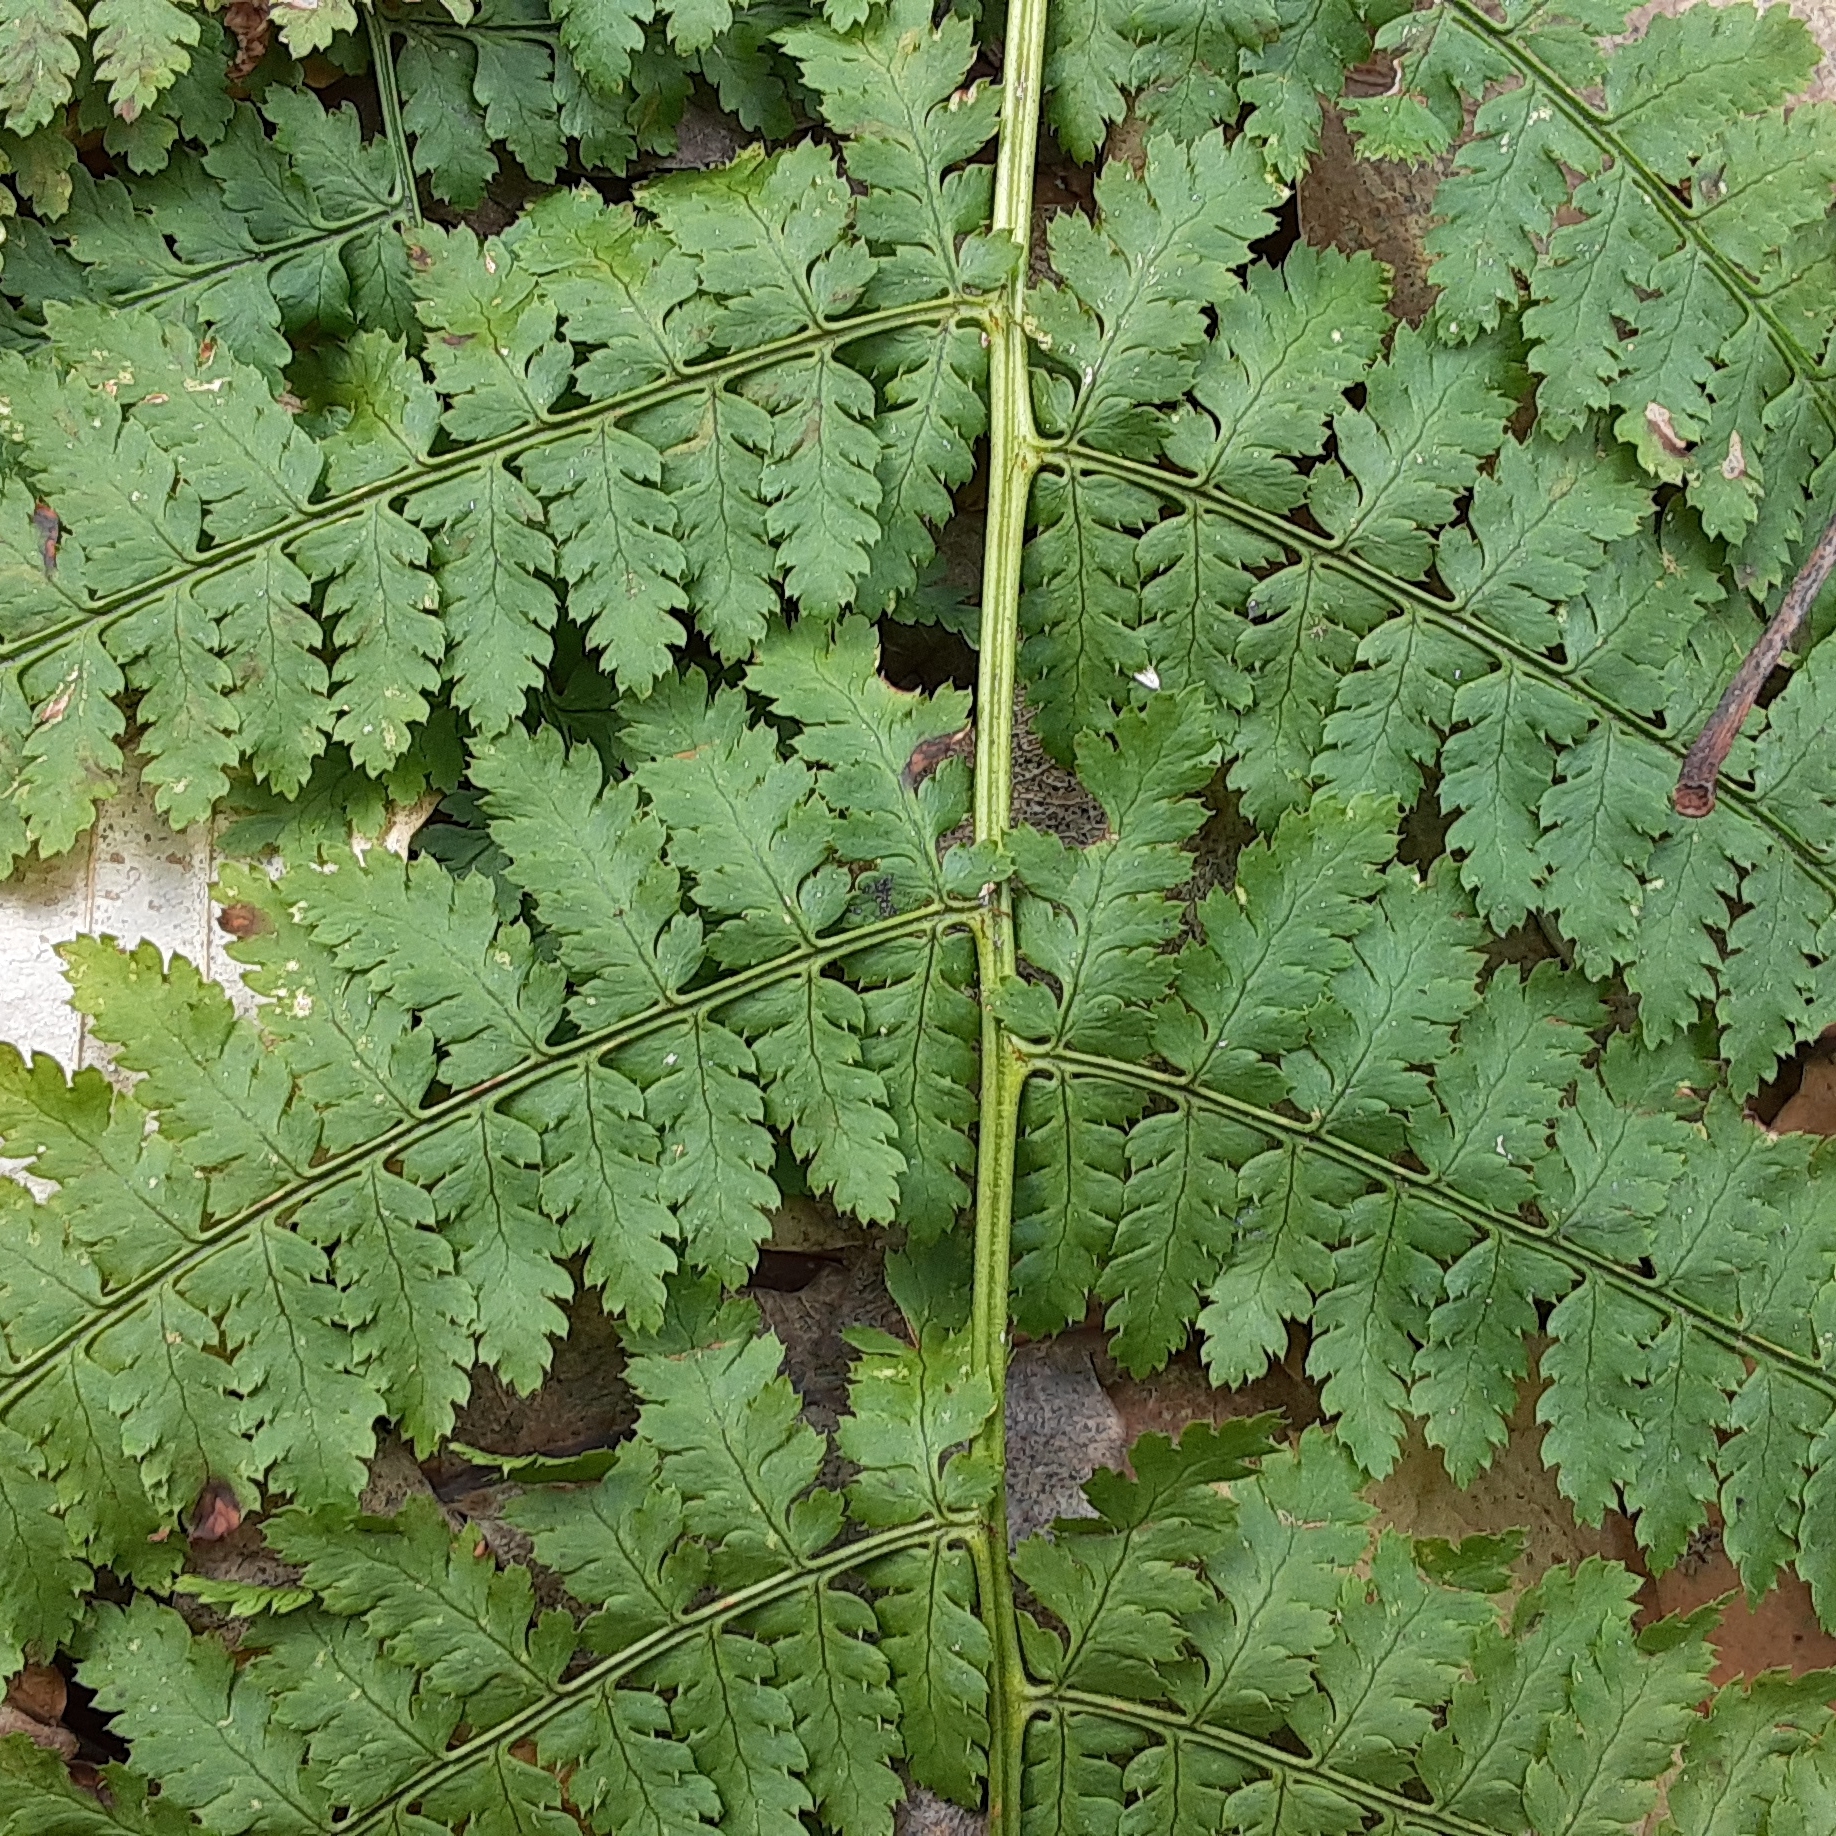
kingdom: Plantae
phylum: Tracheophyta
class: Polypodiopsida
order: Polypodiales
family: Dryopteridaceae
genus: Dryopteris
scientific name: Dryopteris intermedia
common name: Evergreen wood fern
